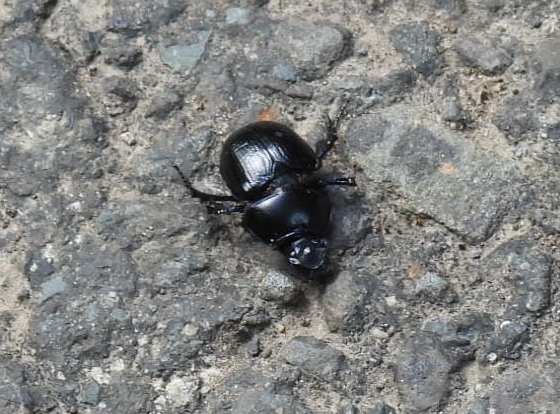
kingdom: Animalia
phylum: Arthropoda
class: Insecta
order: Coleoptera
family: Geotrupidae
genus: Anoplotrupes
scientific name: Anoplotrupes stercorosus
